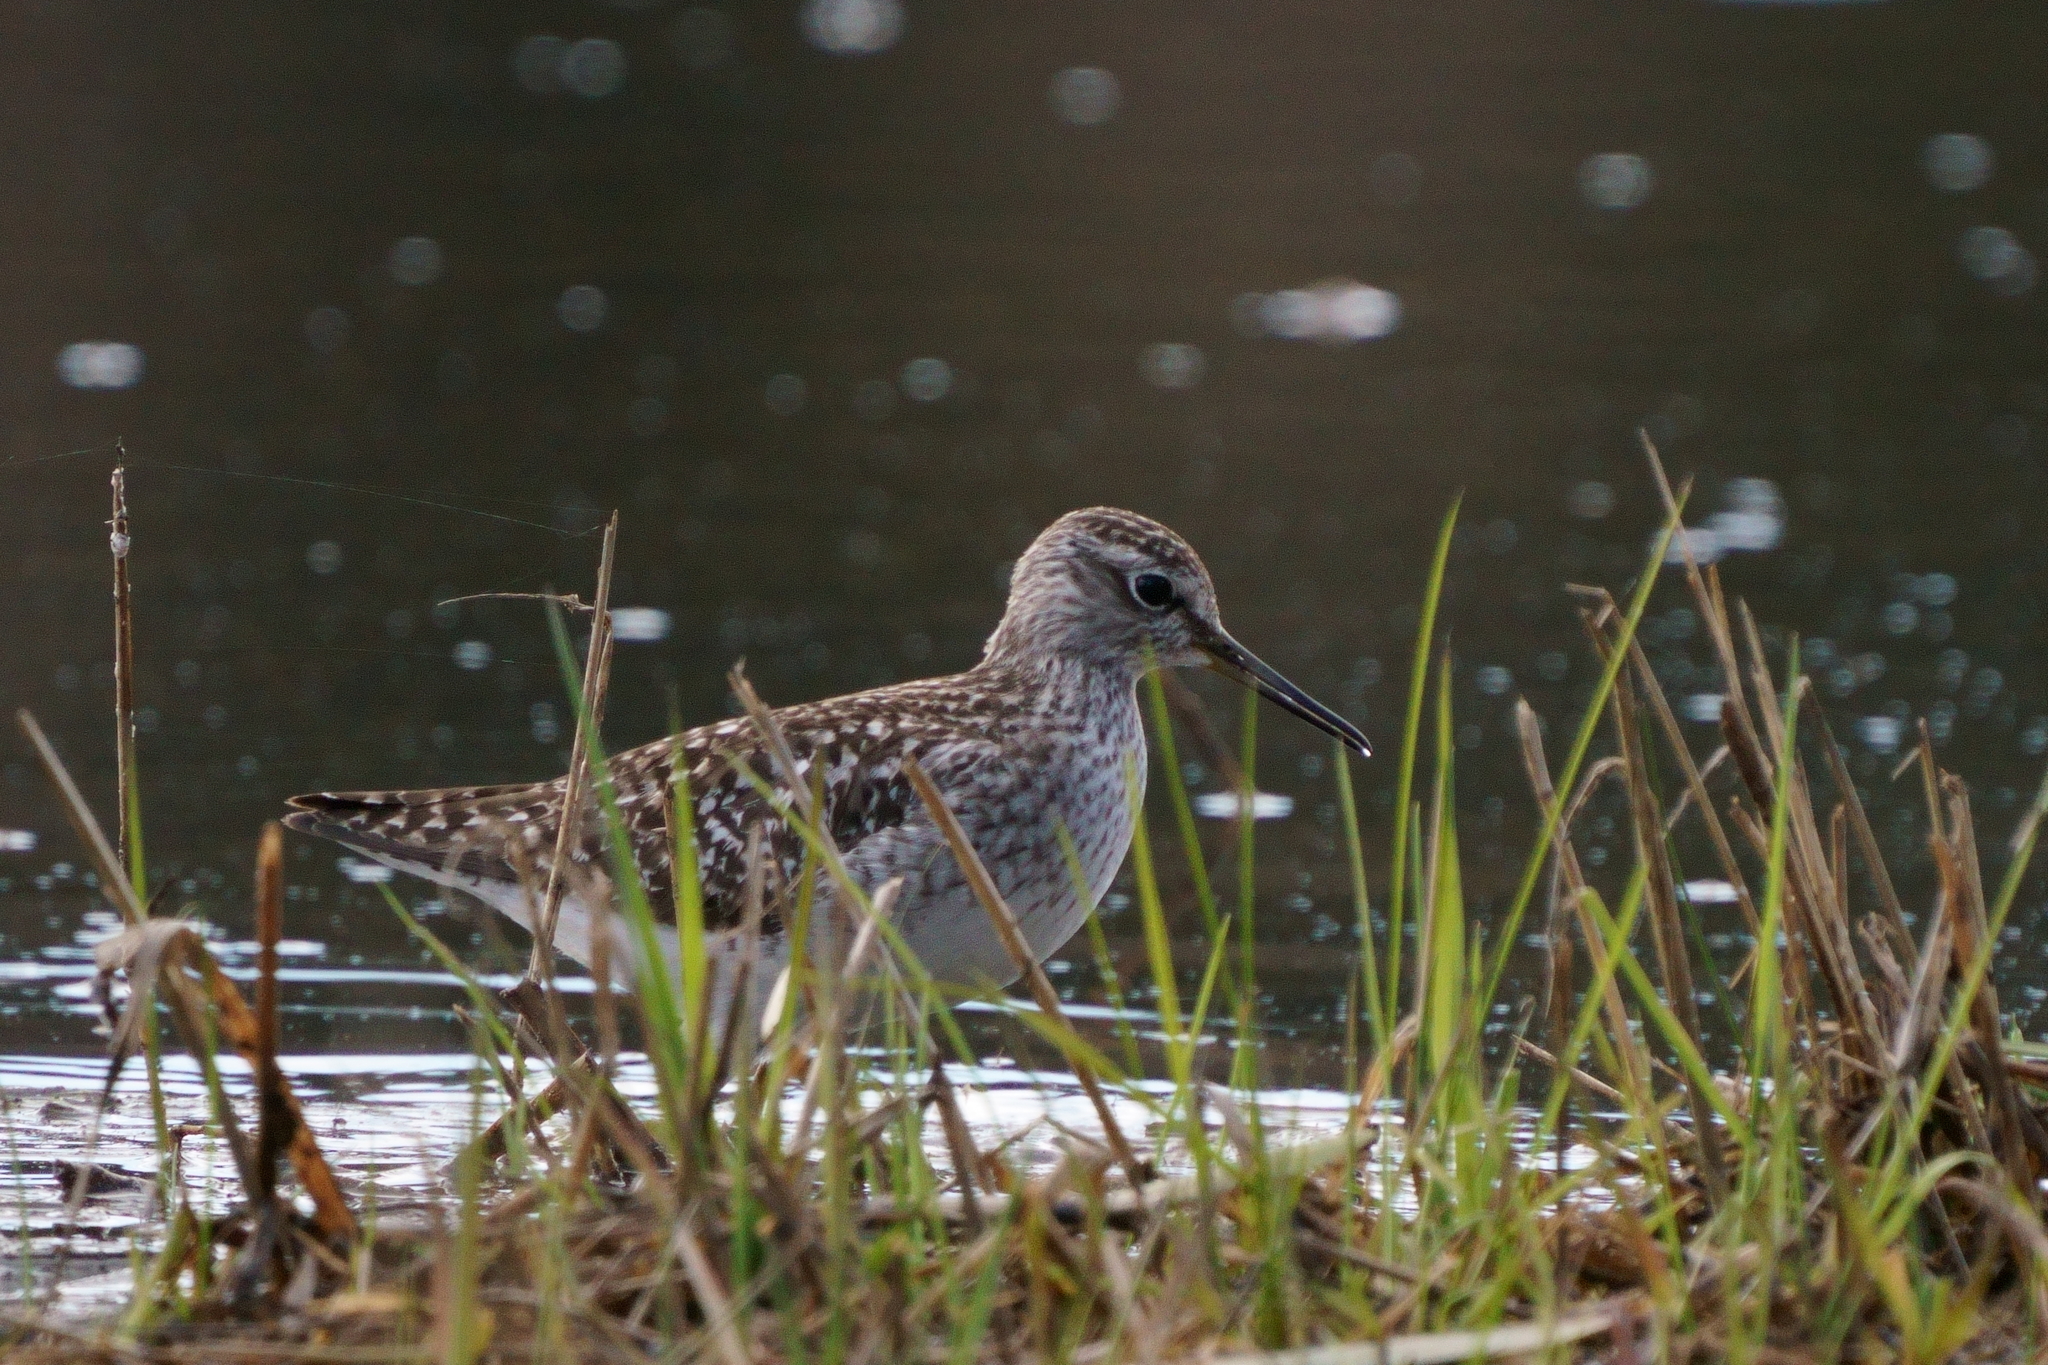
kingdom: Animalia
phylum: Chordata
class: Aves
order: Charadriiformes
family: Scolopacidae
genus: Tringa
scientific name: Tringa glareola
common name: Wood sandpiper
